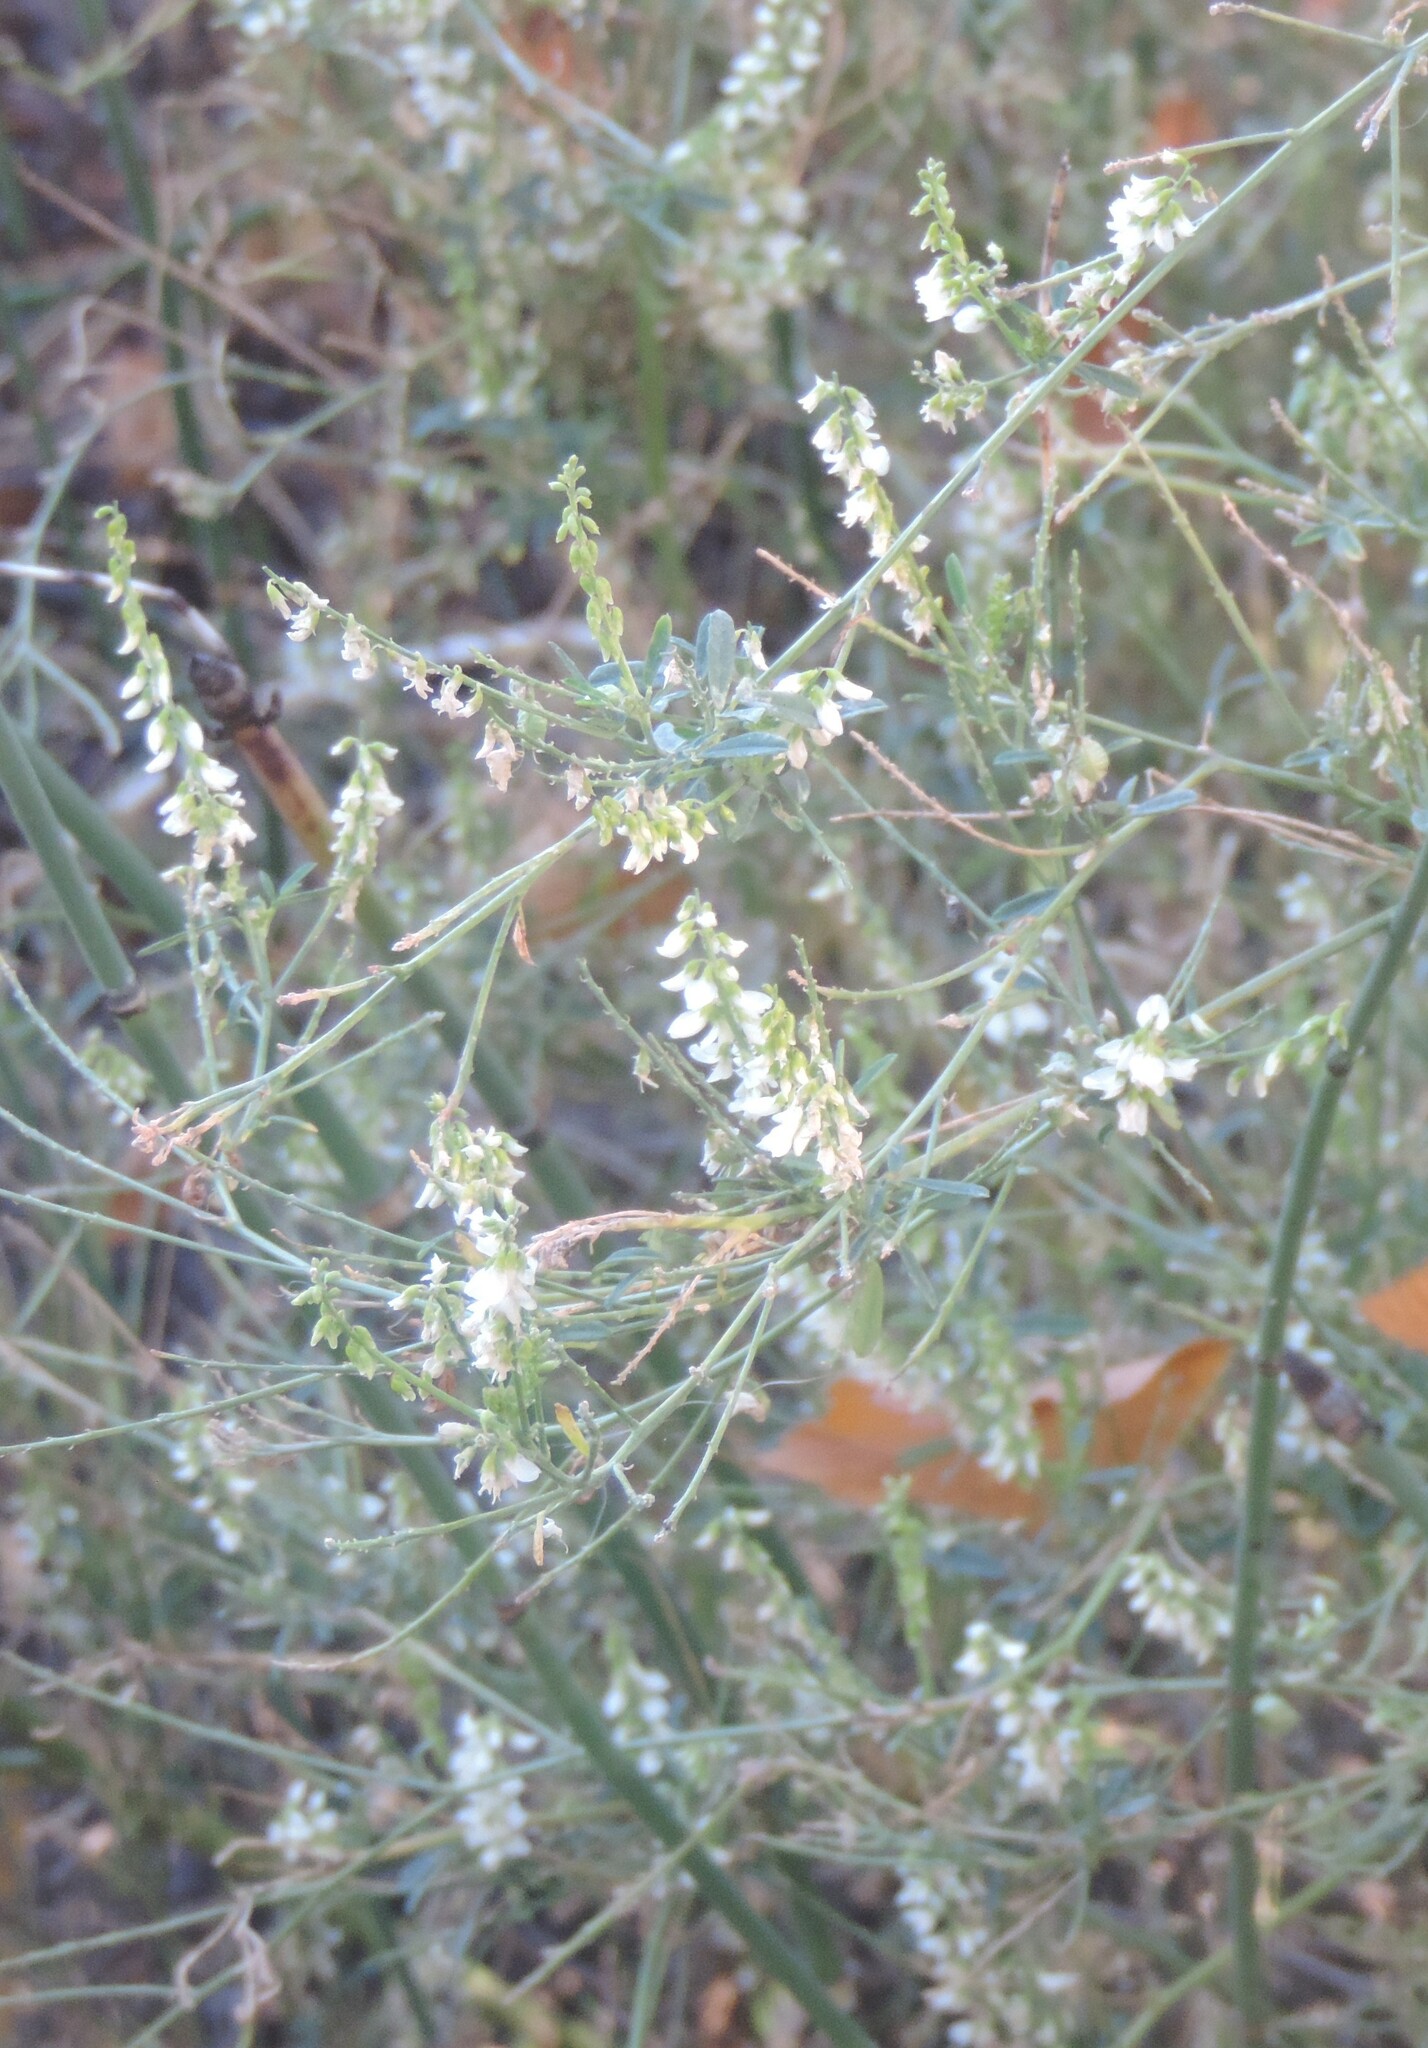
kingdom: Plantae
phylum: Tracheophyta
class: Magnoliopsida
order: Fabales
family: Fabaceae
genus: Melilotus
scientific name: Melilotus albus
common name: White melilot
